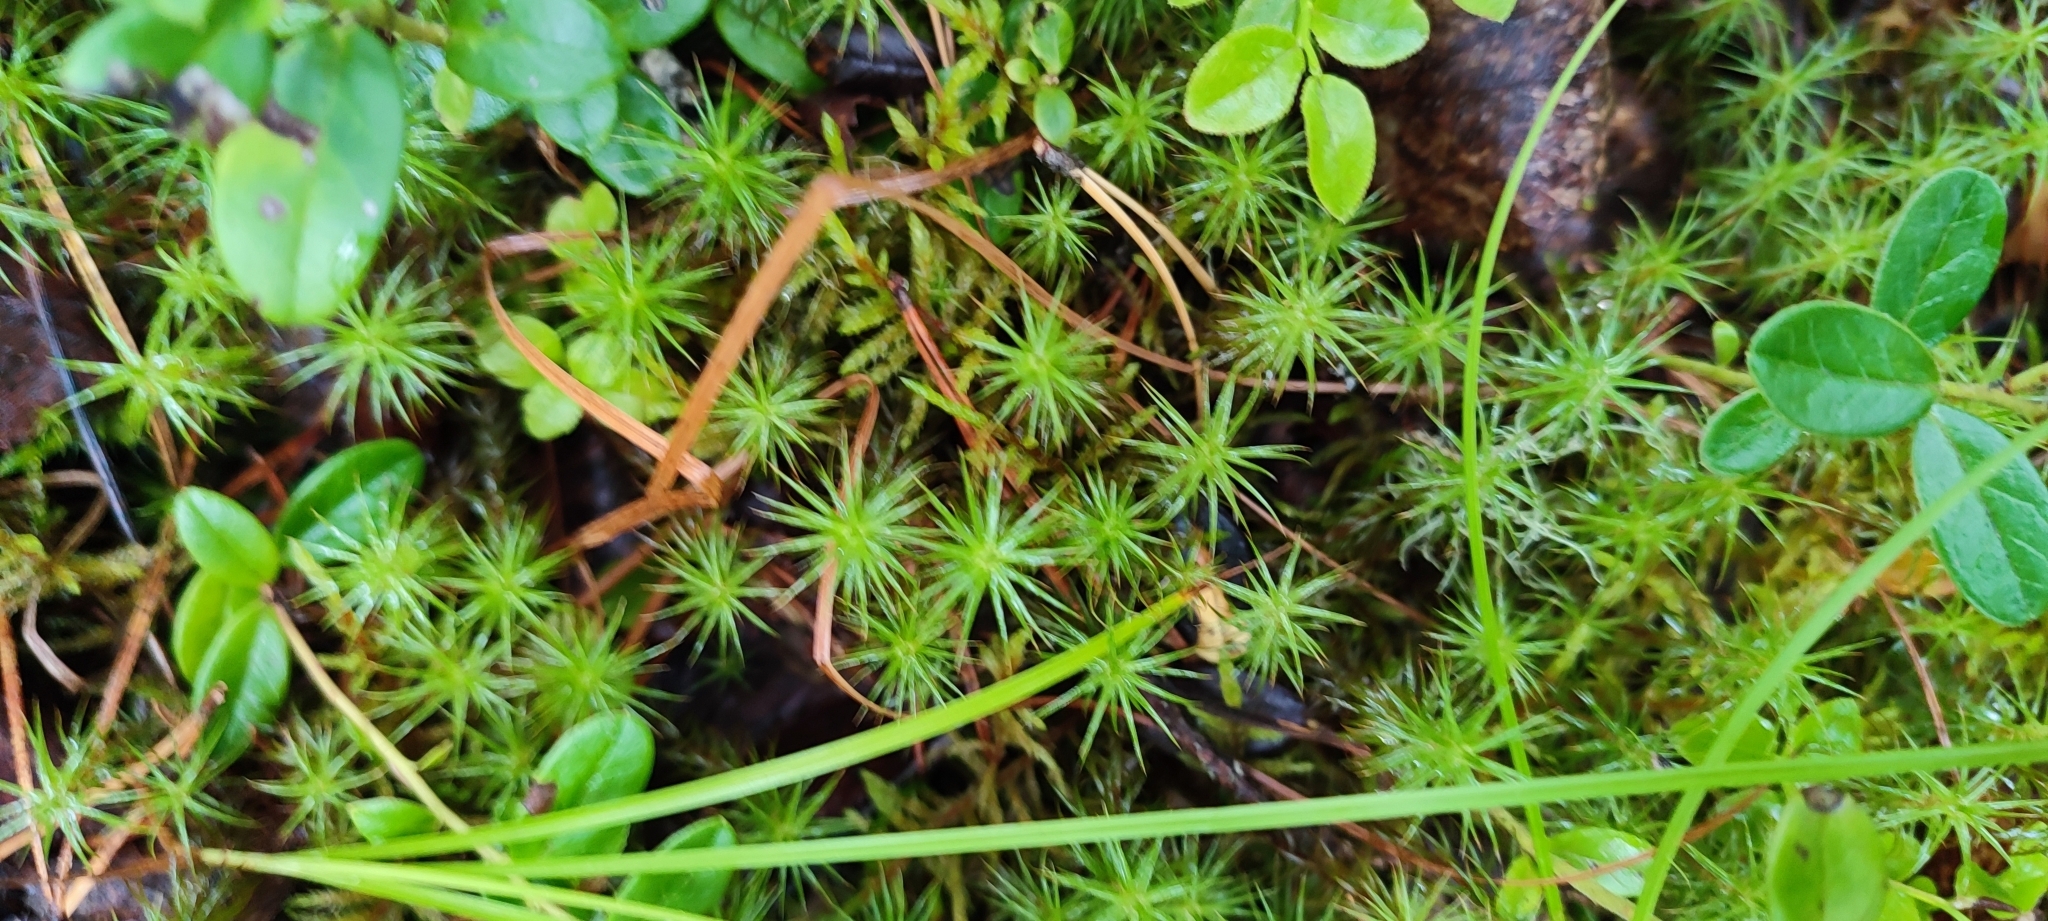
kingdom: Plantae
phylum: Bryophyta
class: Polytrichopsida
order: Polytrichales
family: Polytrichaceae
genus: Polytrichum
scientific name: Polytrichum commune
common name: Common haircap
